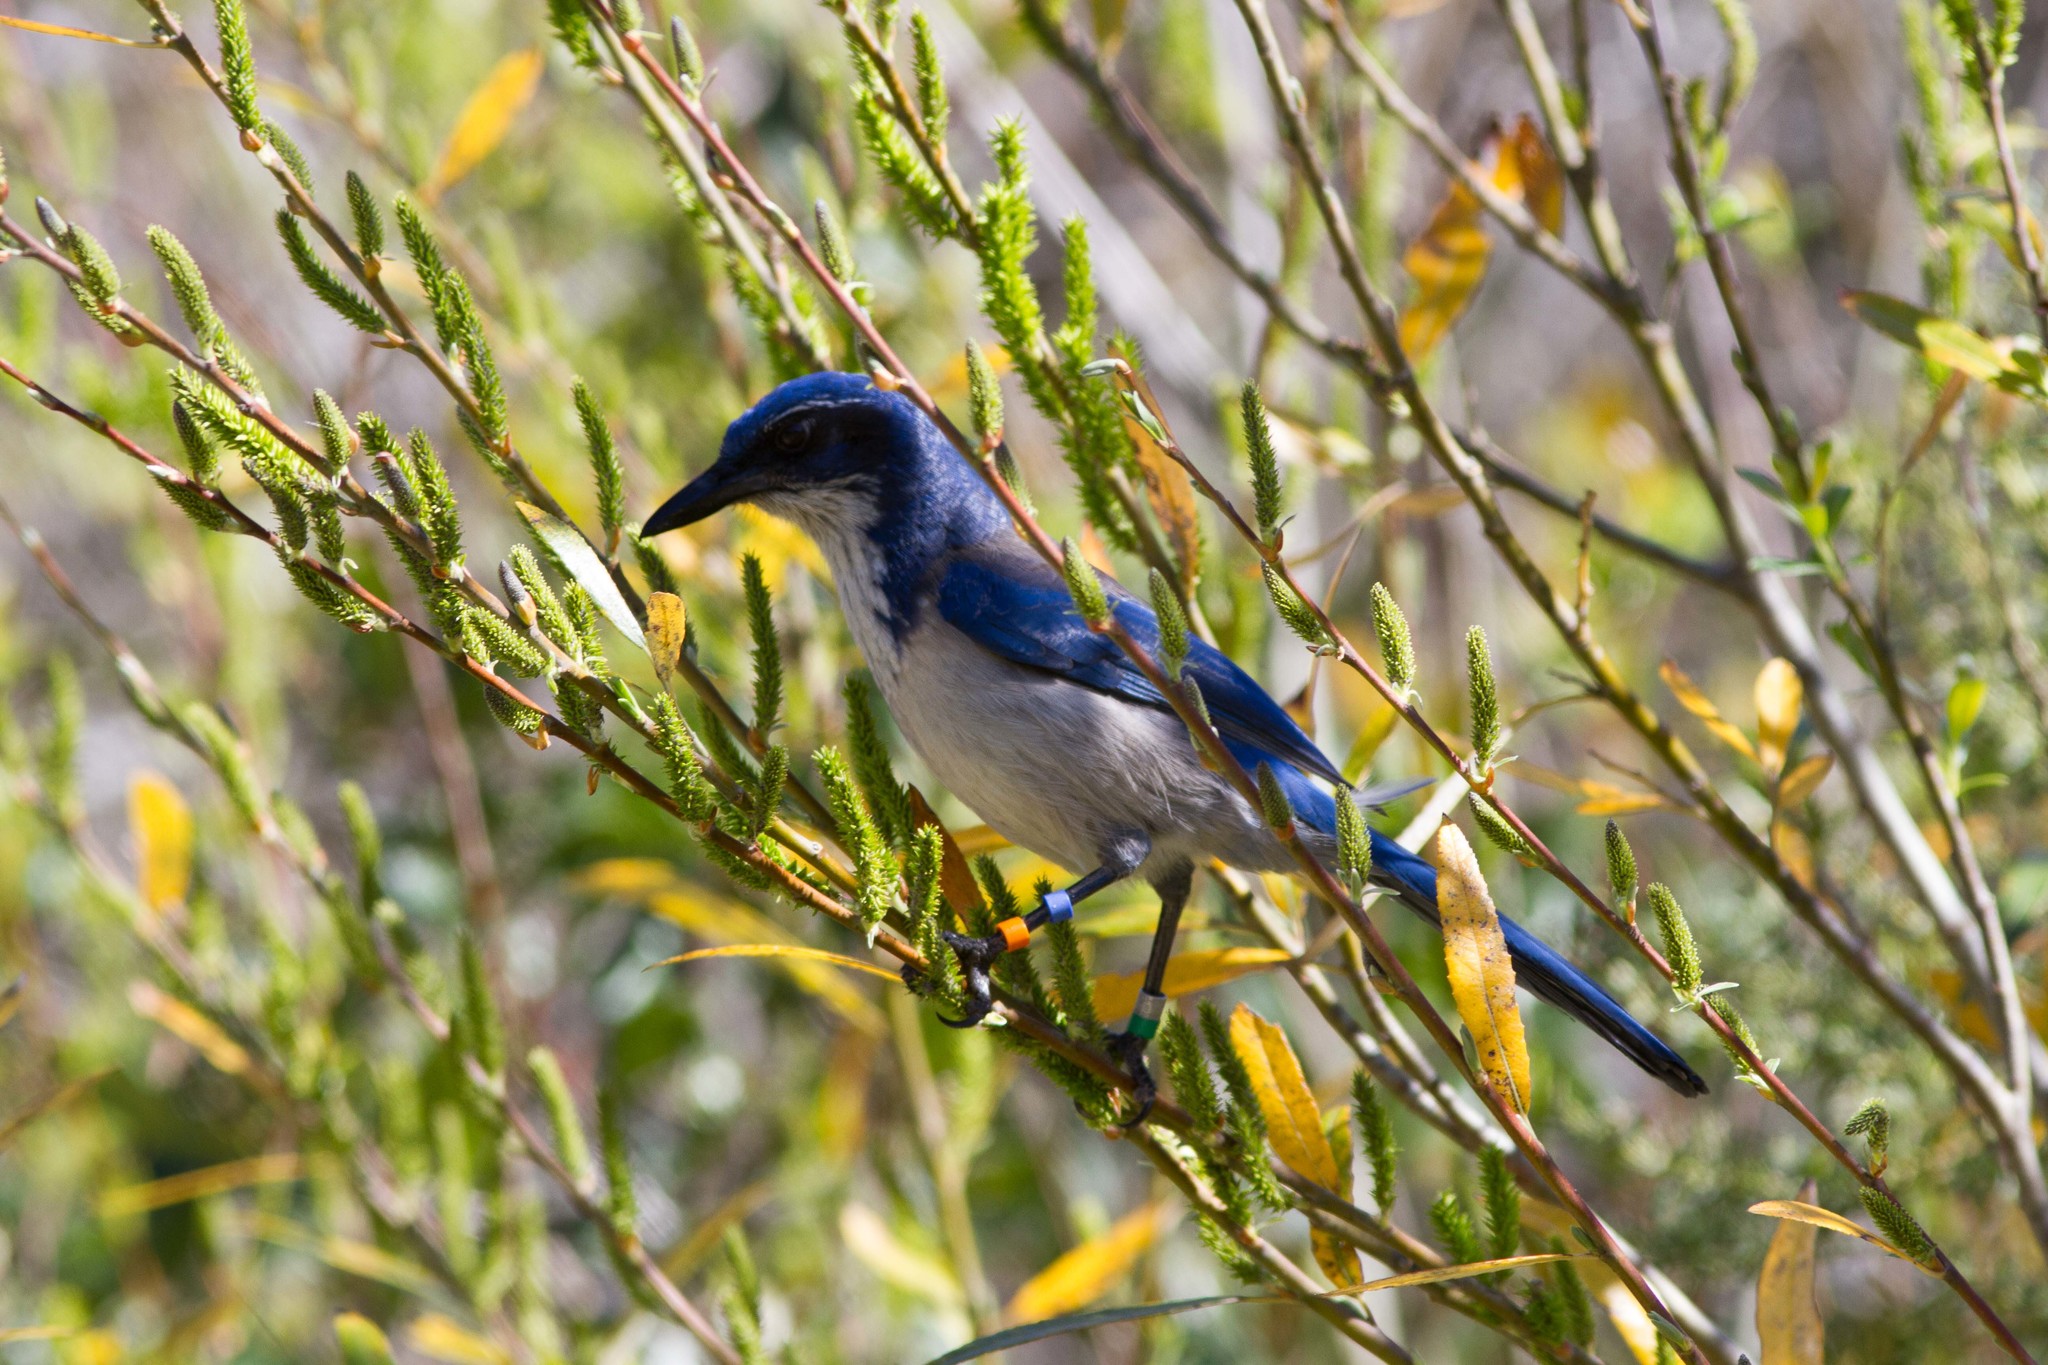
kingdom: Animalia
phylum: Chordata
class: Aves
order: Passeriformes
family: Corvidae
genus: Aphelocoma
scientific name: Aphelocoma insularis
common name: Island scrub-jay
